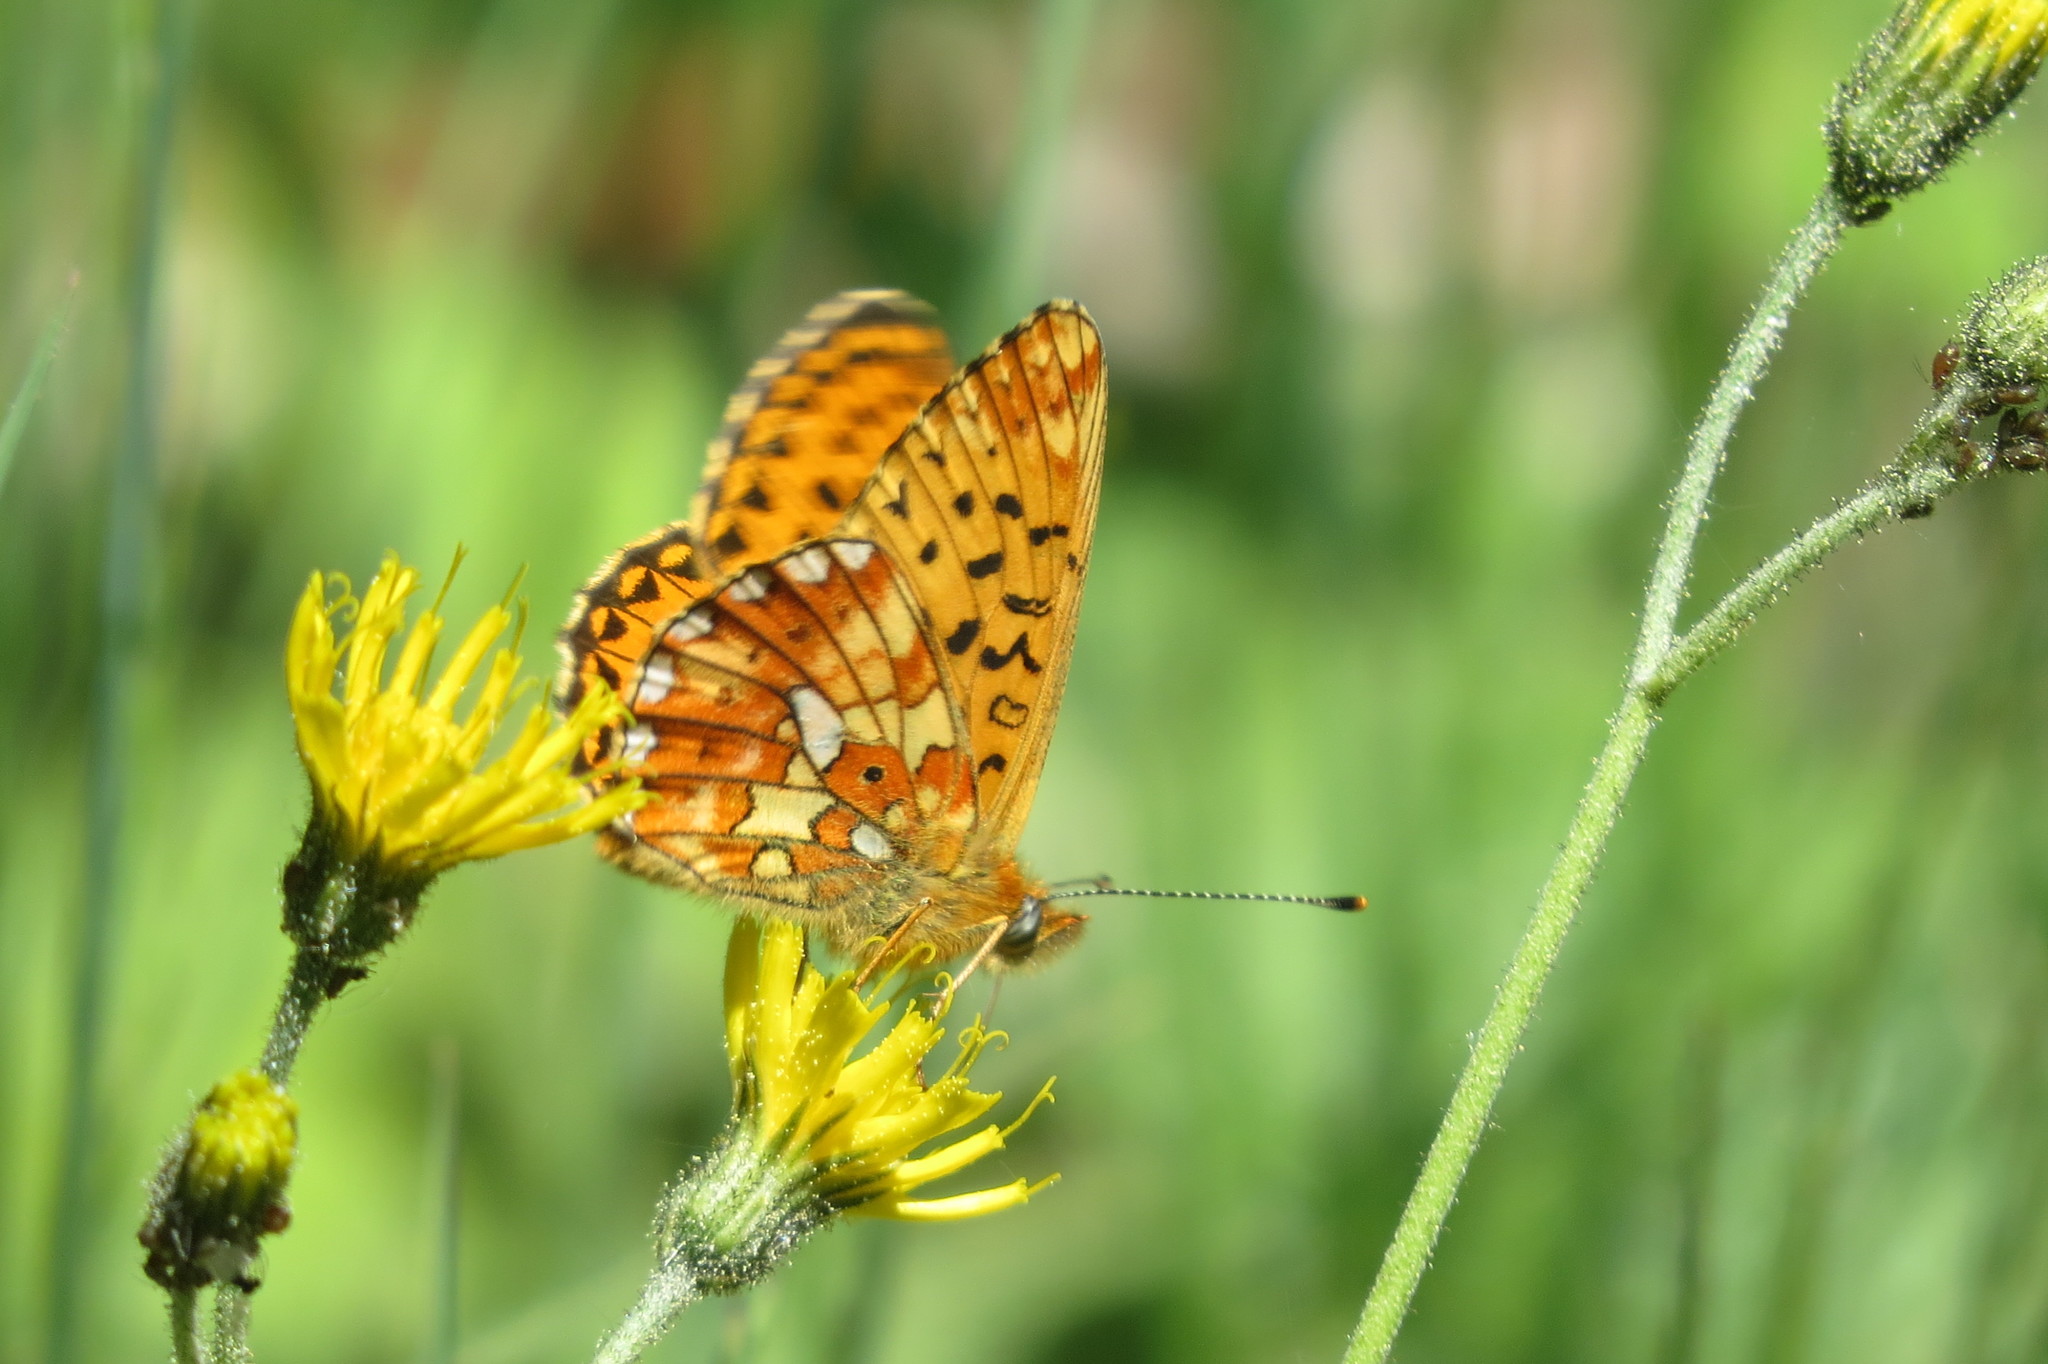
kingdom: Animalia
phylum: Arthropoda
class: Insecta
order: Lepidoptera
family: Nymphalidae
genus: Clossiana
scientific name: Clossiana euphrosyne
